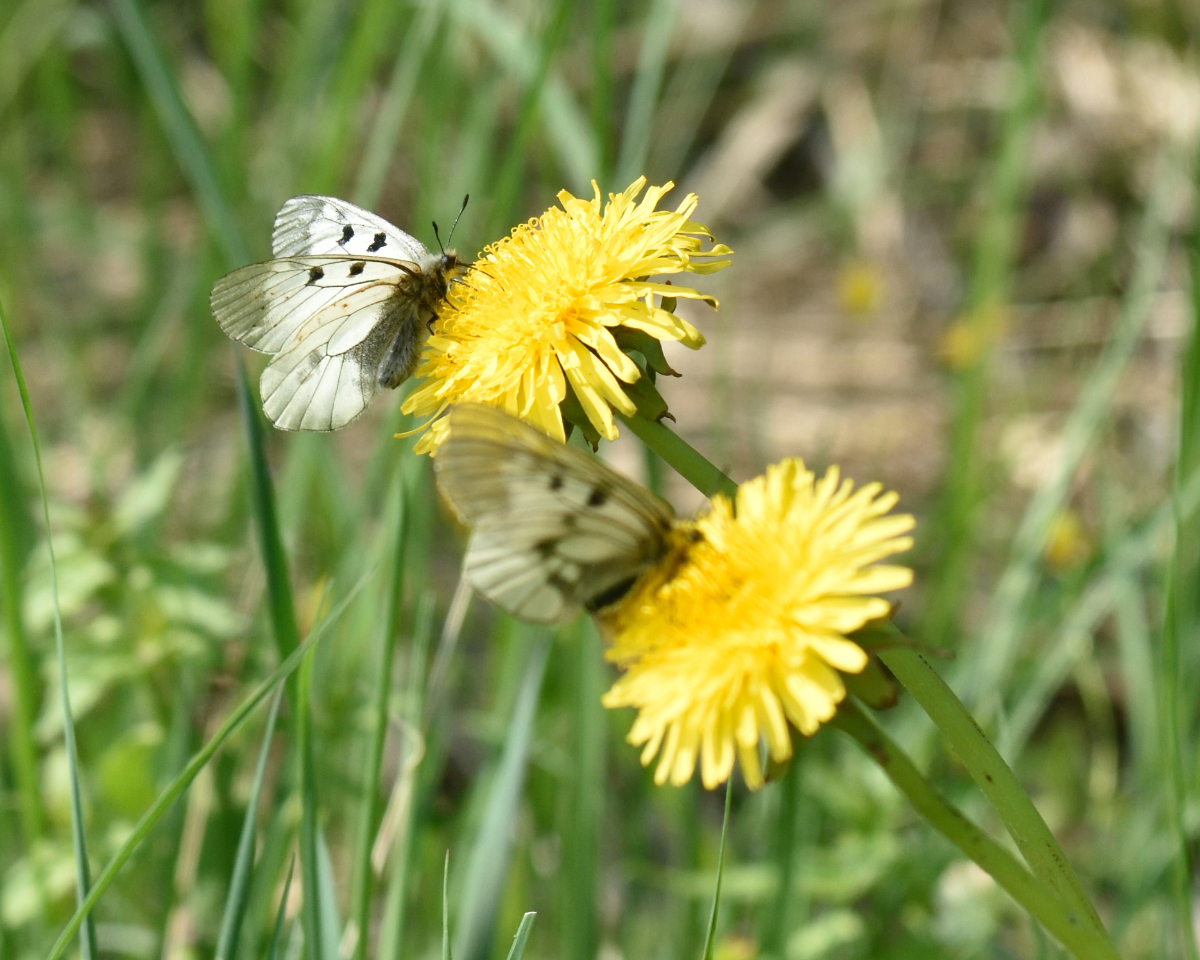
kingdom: Animalia
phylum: Arthropoda
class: Insecta
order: Lepidoptera
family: Papilionidae
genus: Parnassius
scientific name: Parnassius mnemosyne
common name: Clouded apollo
